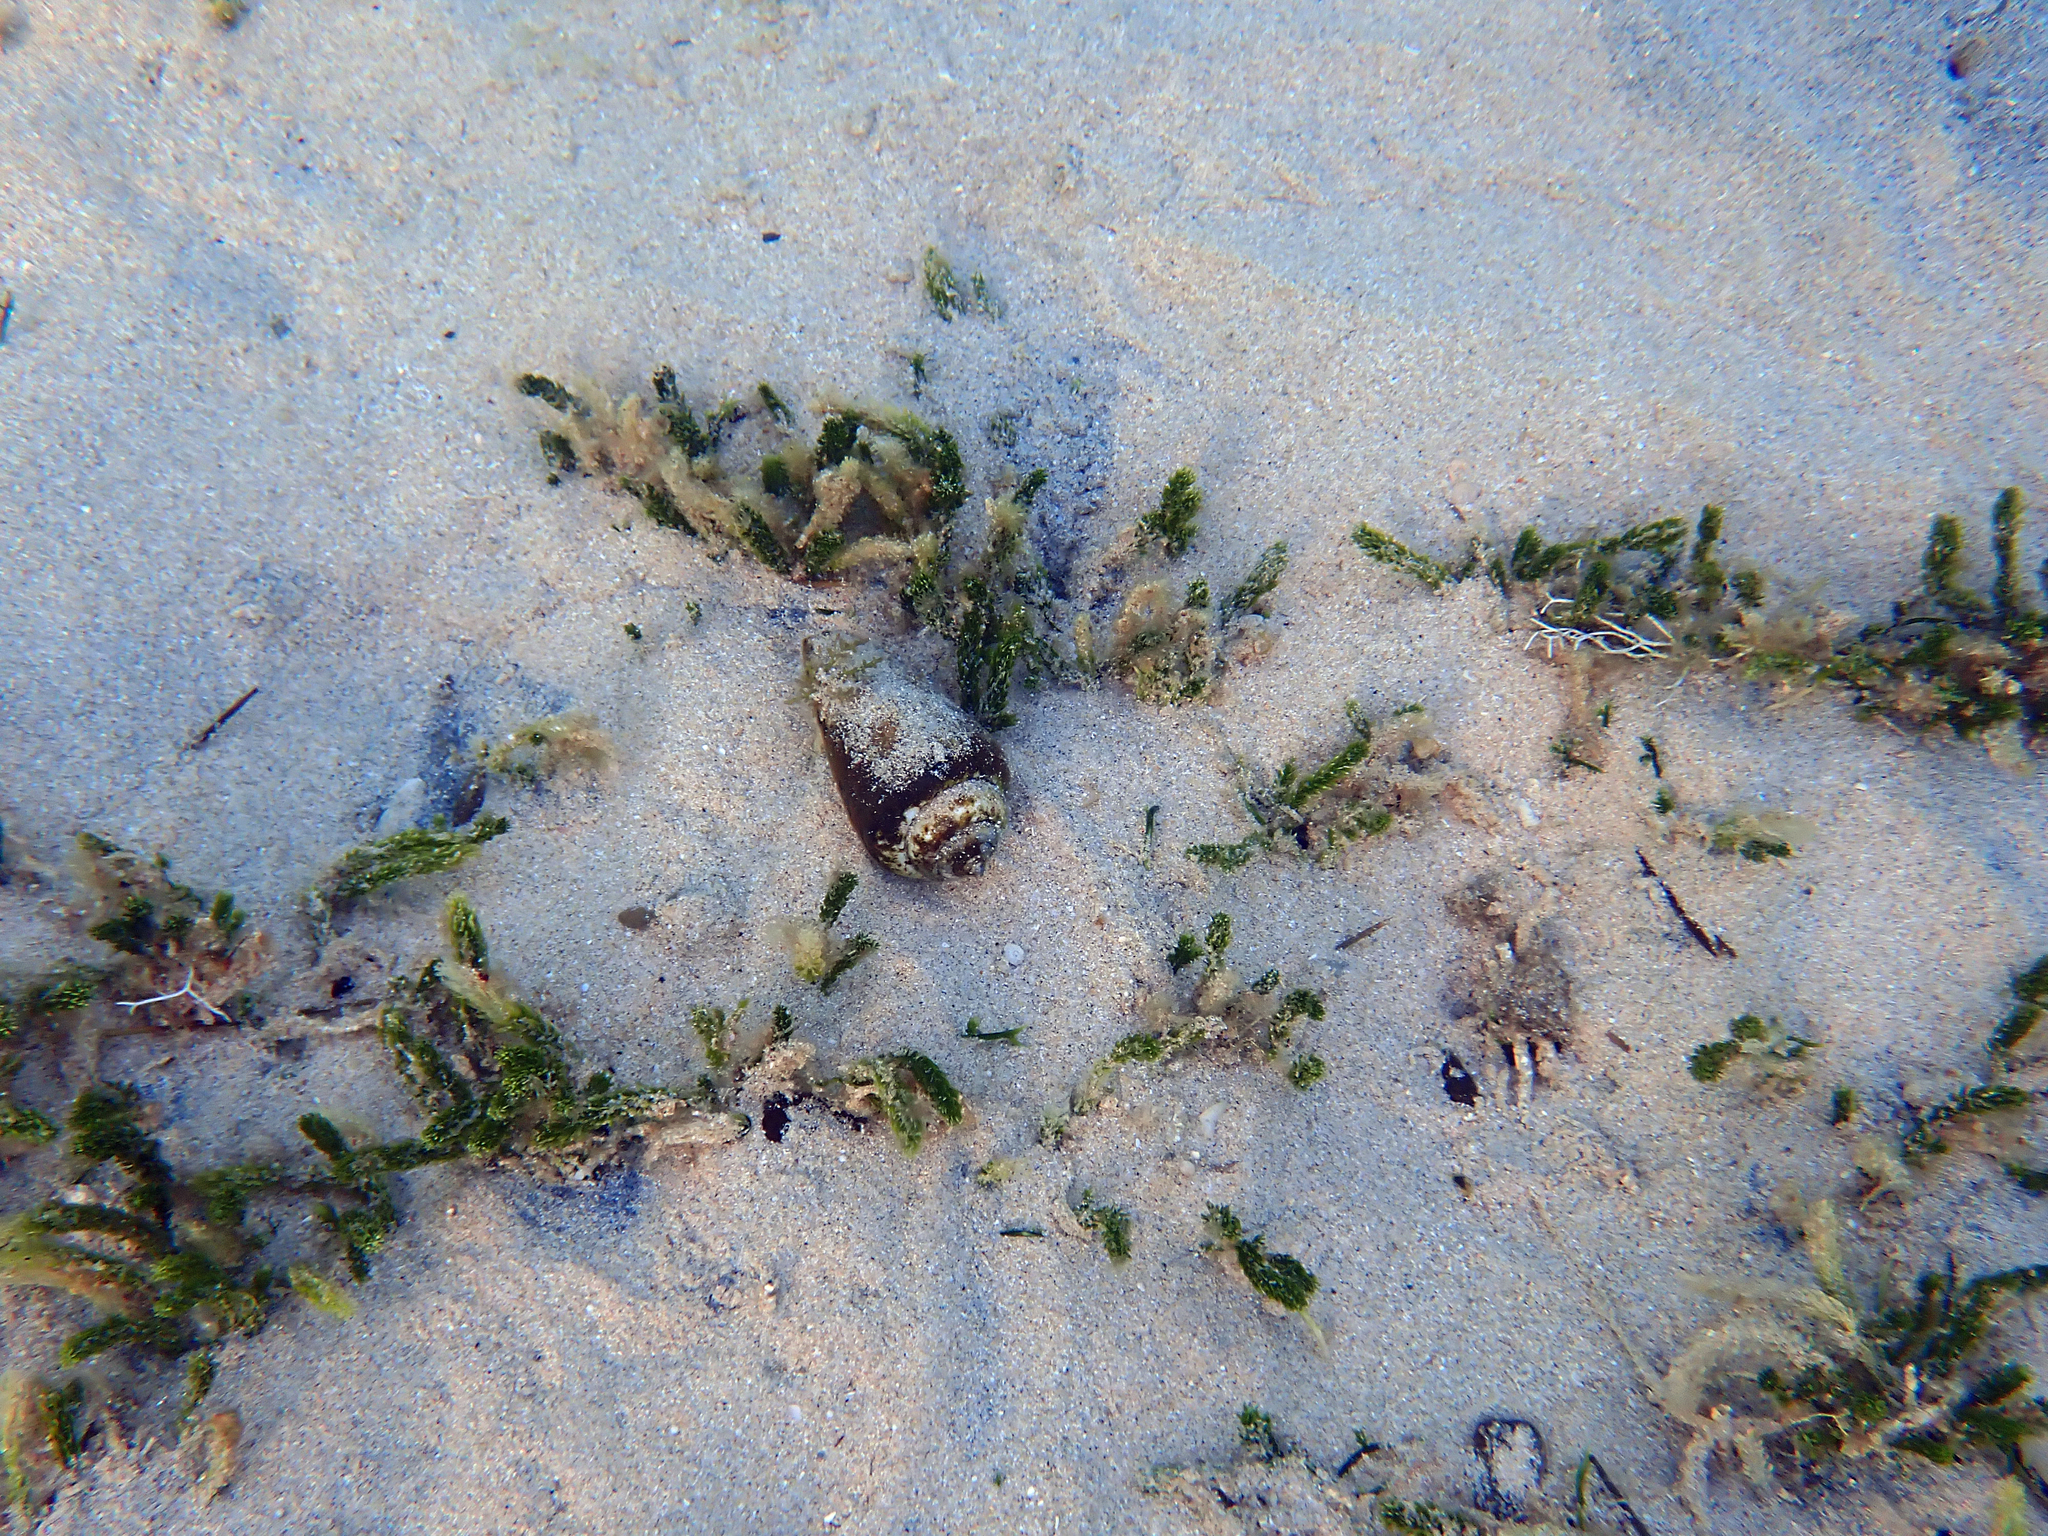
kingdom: Animalia
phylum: Mollusca
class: Gastropoda
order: Littorinimorpha
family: Strombidae
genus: Conomurex
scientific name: Conomurex luhuanus
